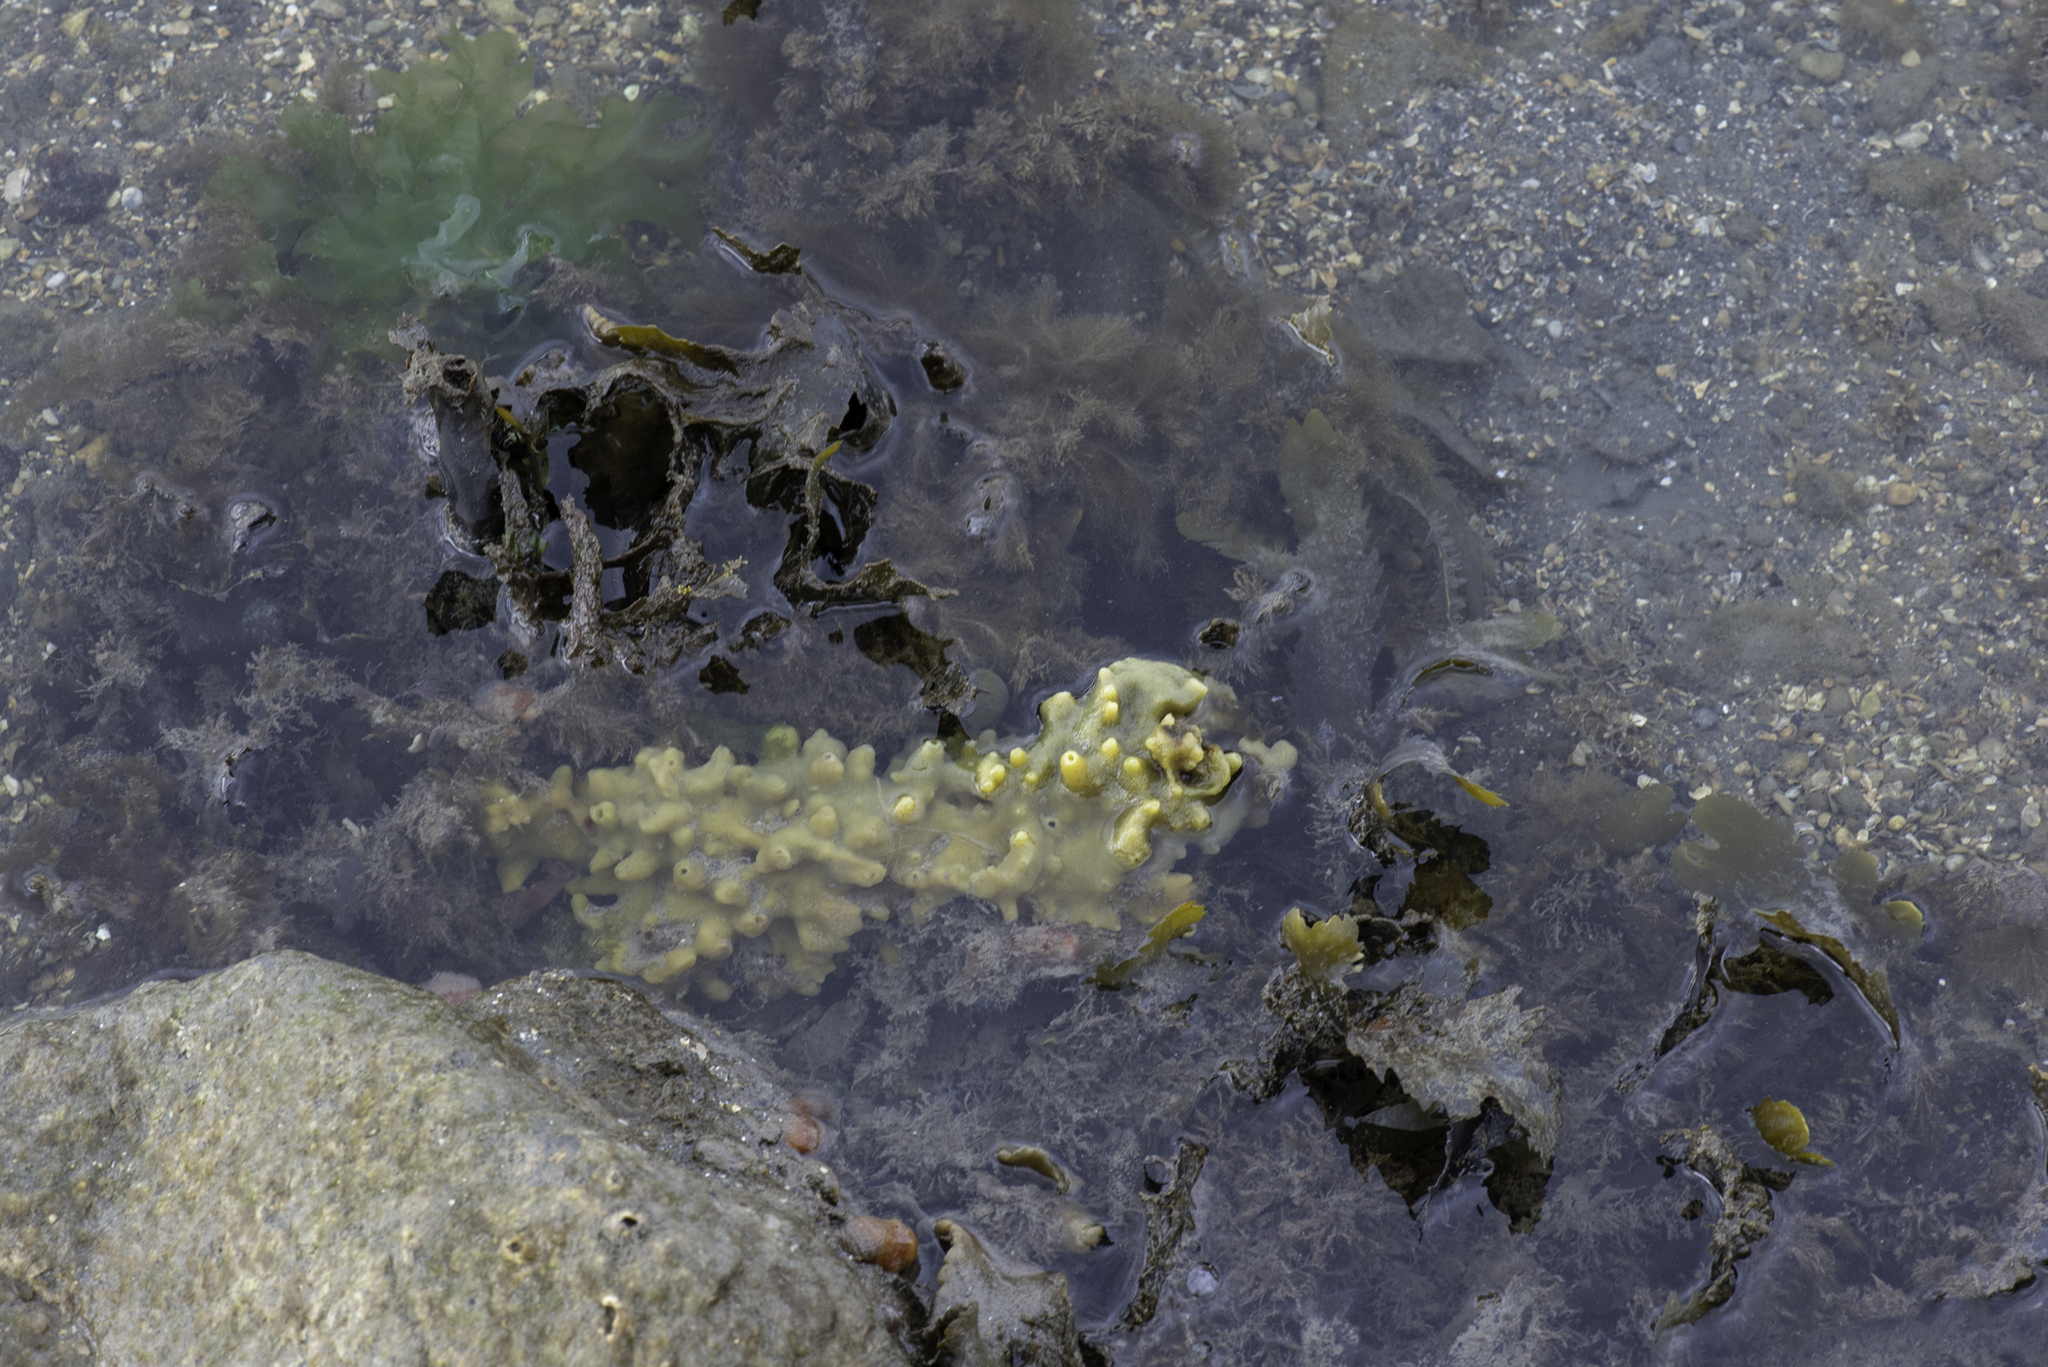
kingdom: Animalia
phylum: Porifera
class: Demospongiae
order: Suberitida
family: Halichondriidae
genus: Halichondria
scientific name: Halichondria panicea
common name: Breadcrumb sponge
